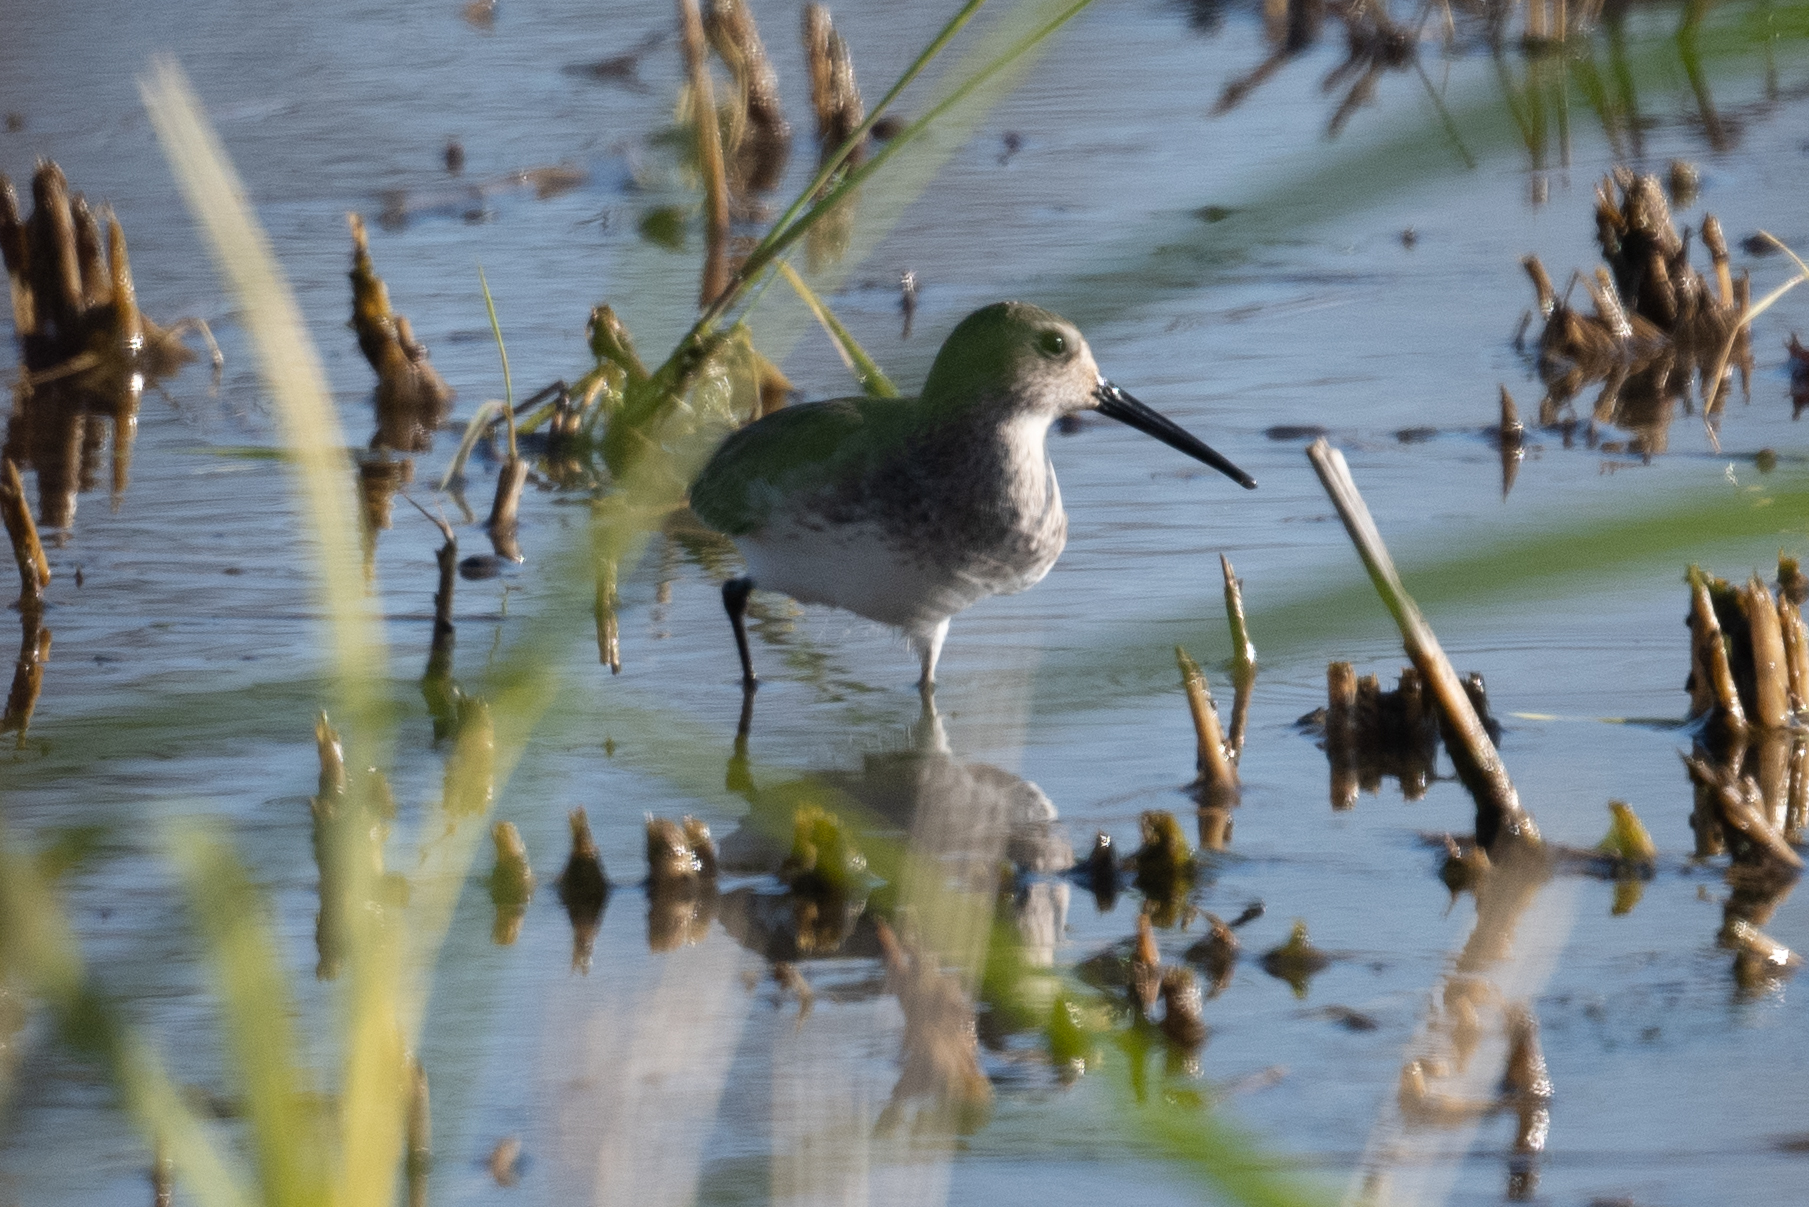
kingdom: Animalia
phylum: Chordata
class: Aves
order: Charadriiformes
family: Scolopacidae
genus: Calidris
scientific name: Calidris alpina
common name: Dunlin
